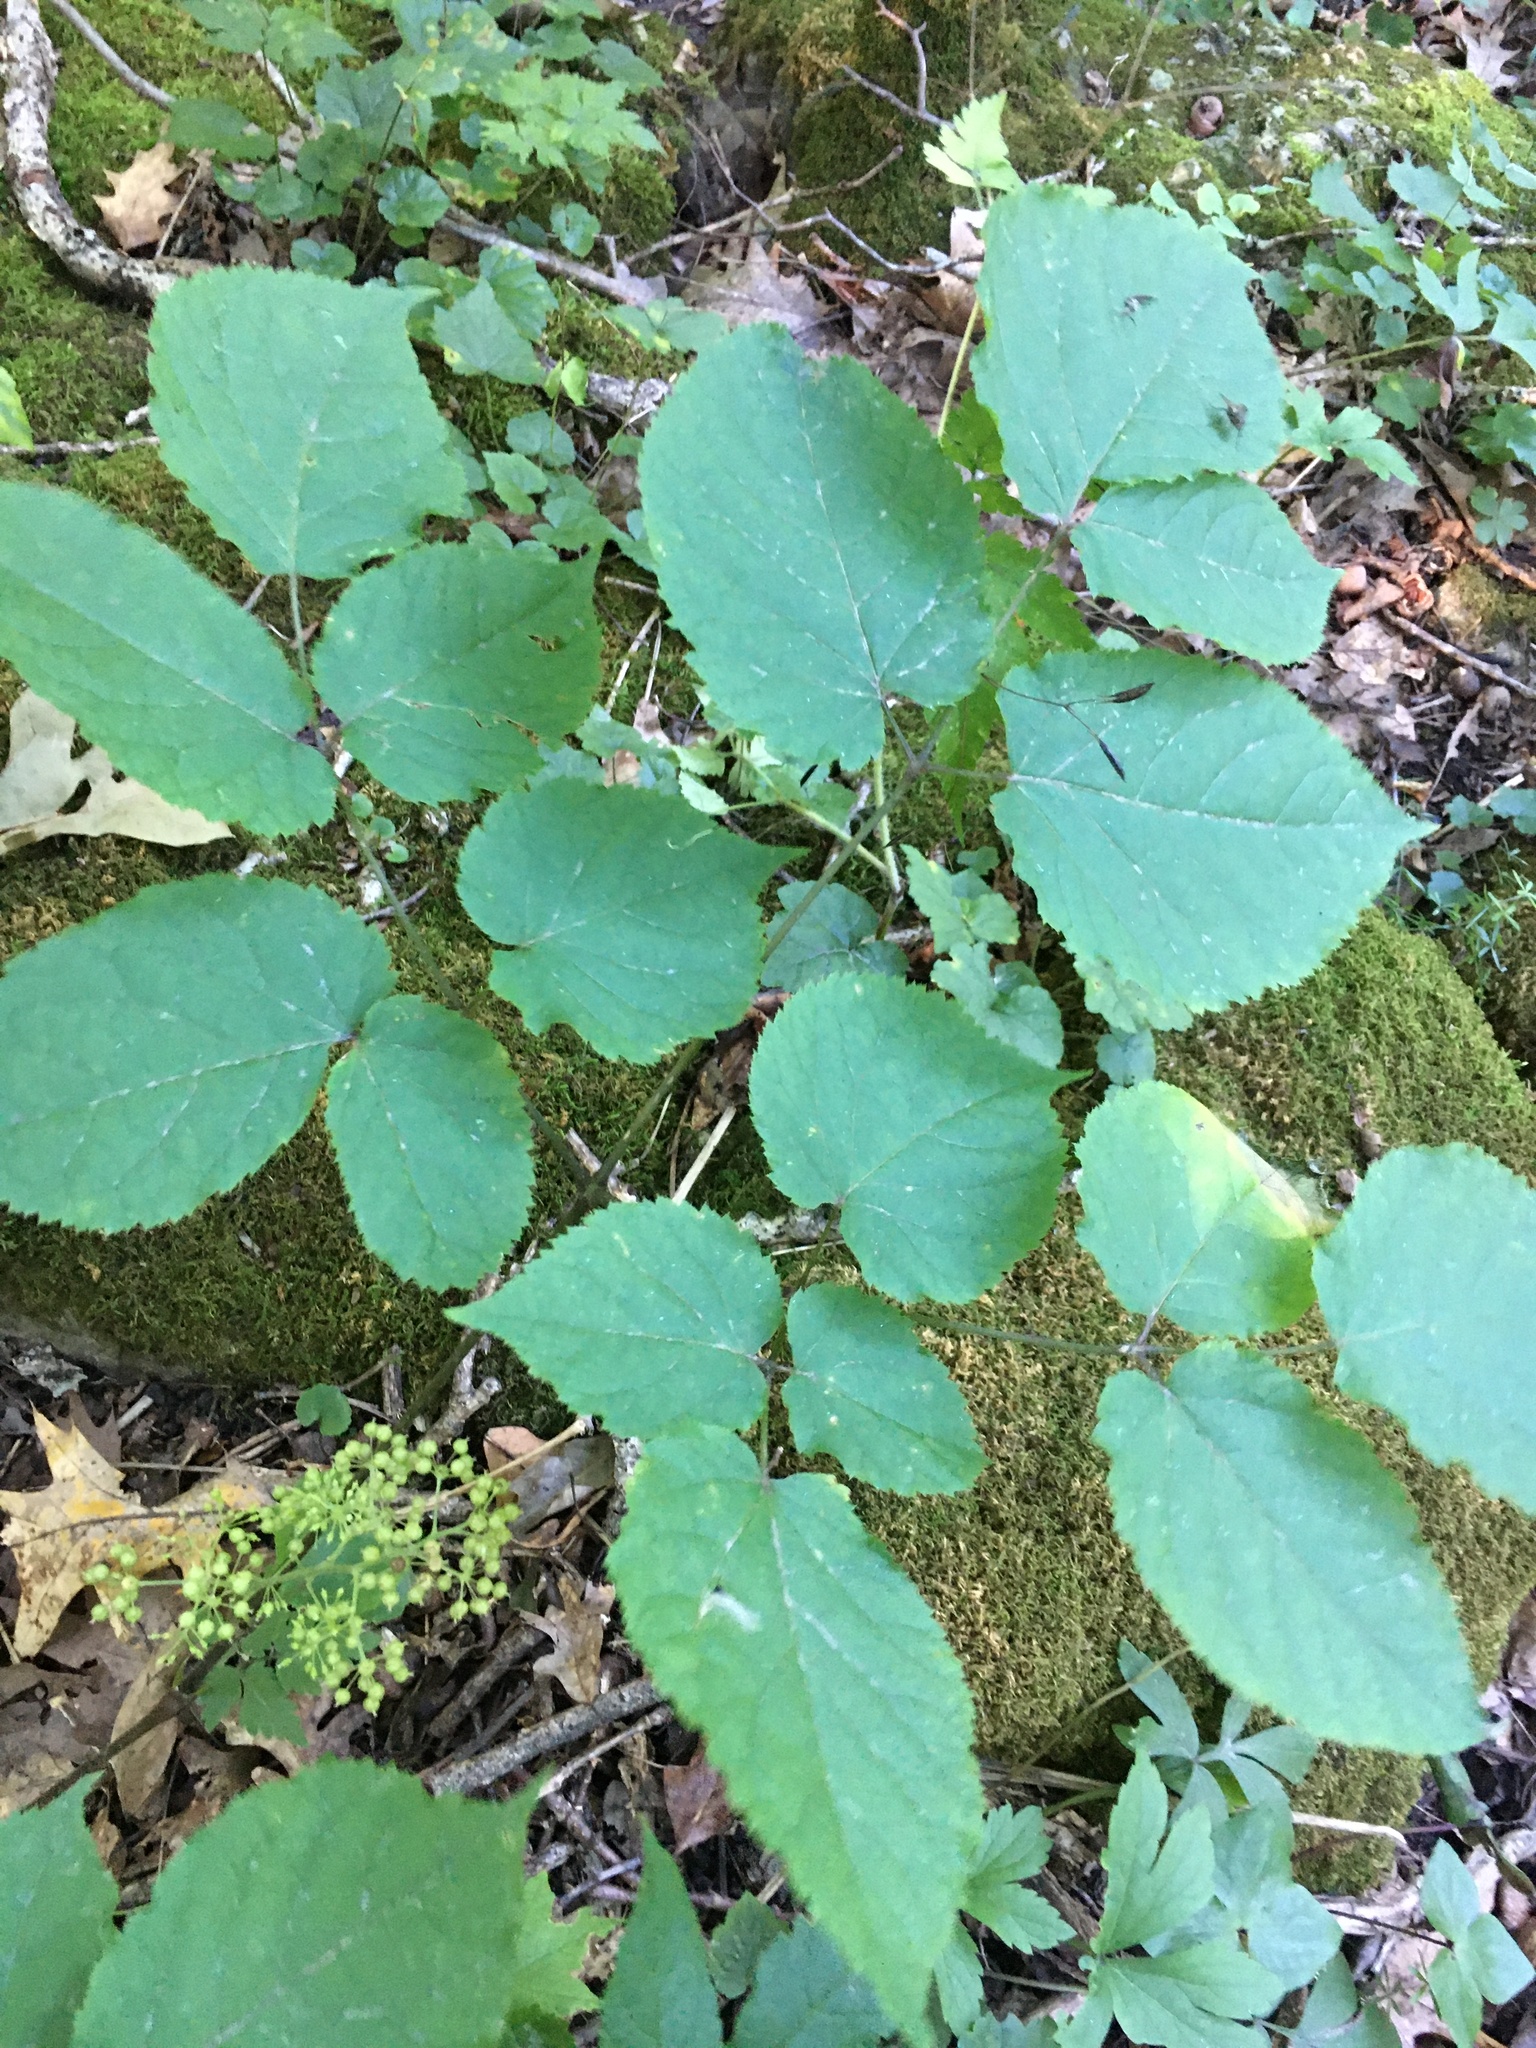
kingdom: Plantae
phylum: Tracheophyta
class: Magnoliopsida
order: Apiales
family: Araliaceae
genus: Aralia
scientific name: Aralia racemosa
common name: American-spikenard
